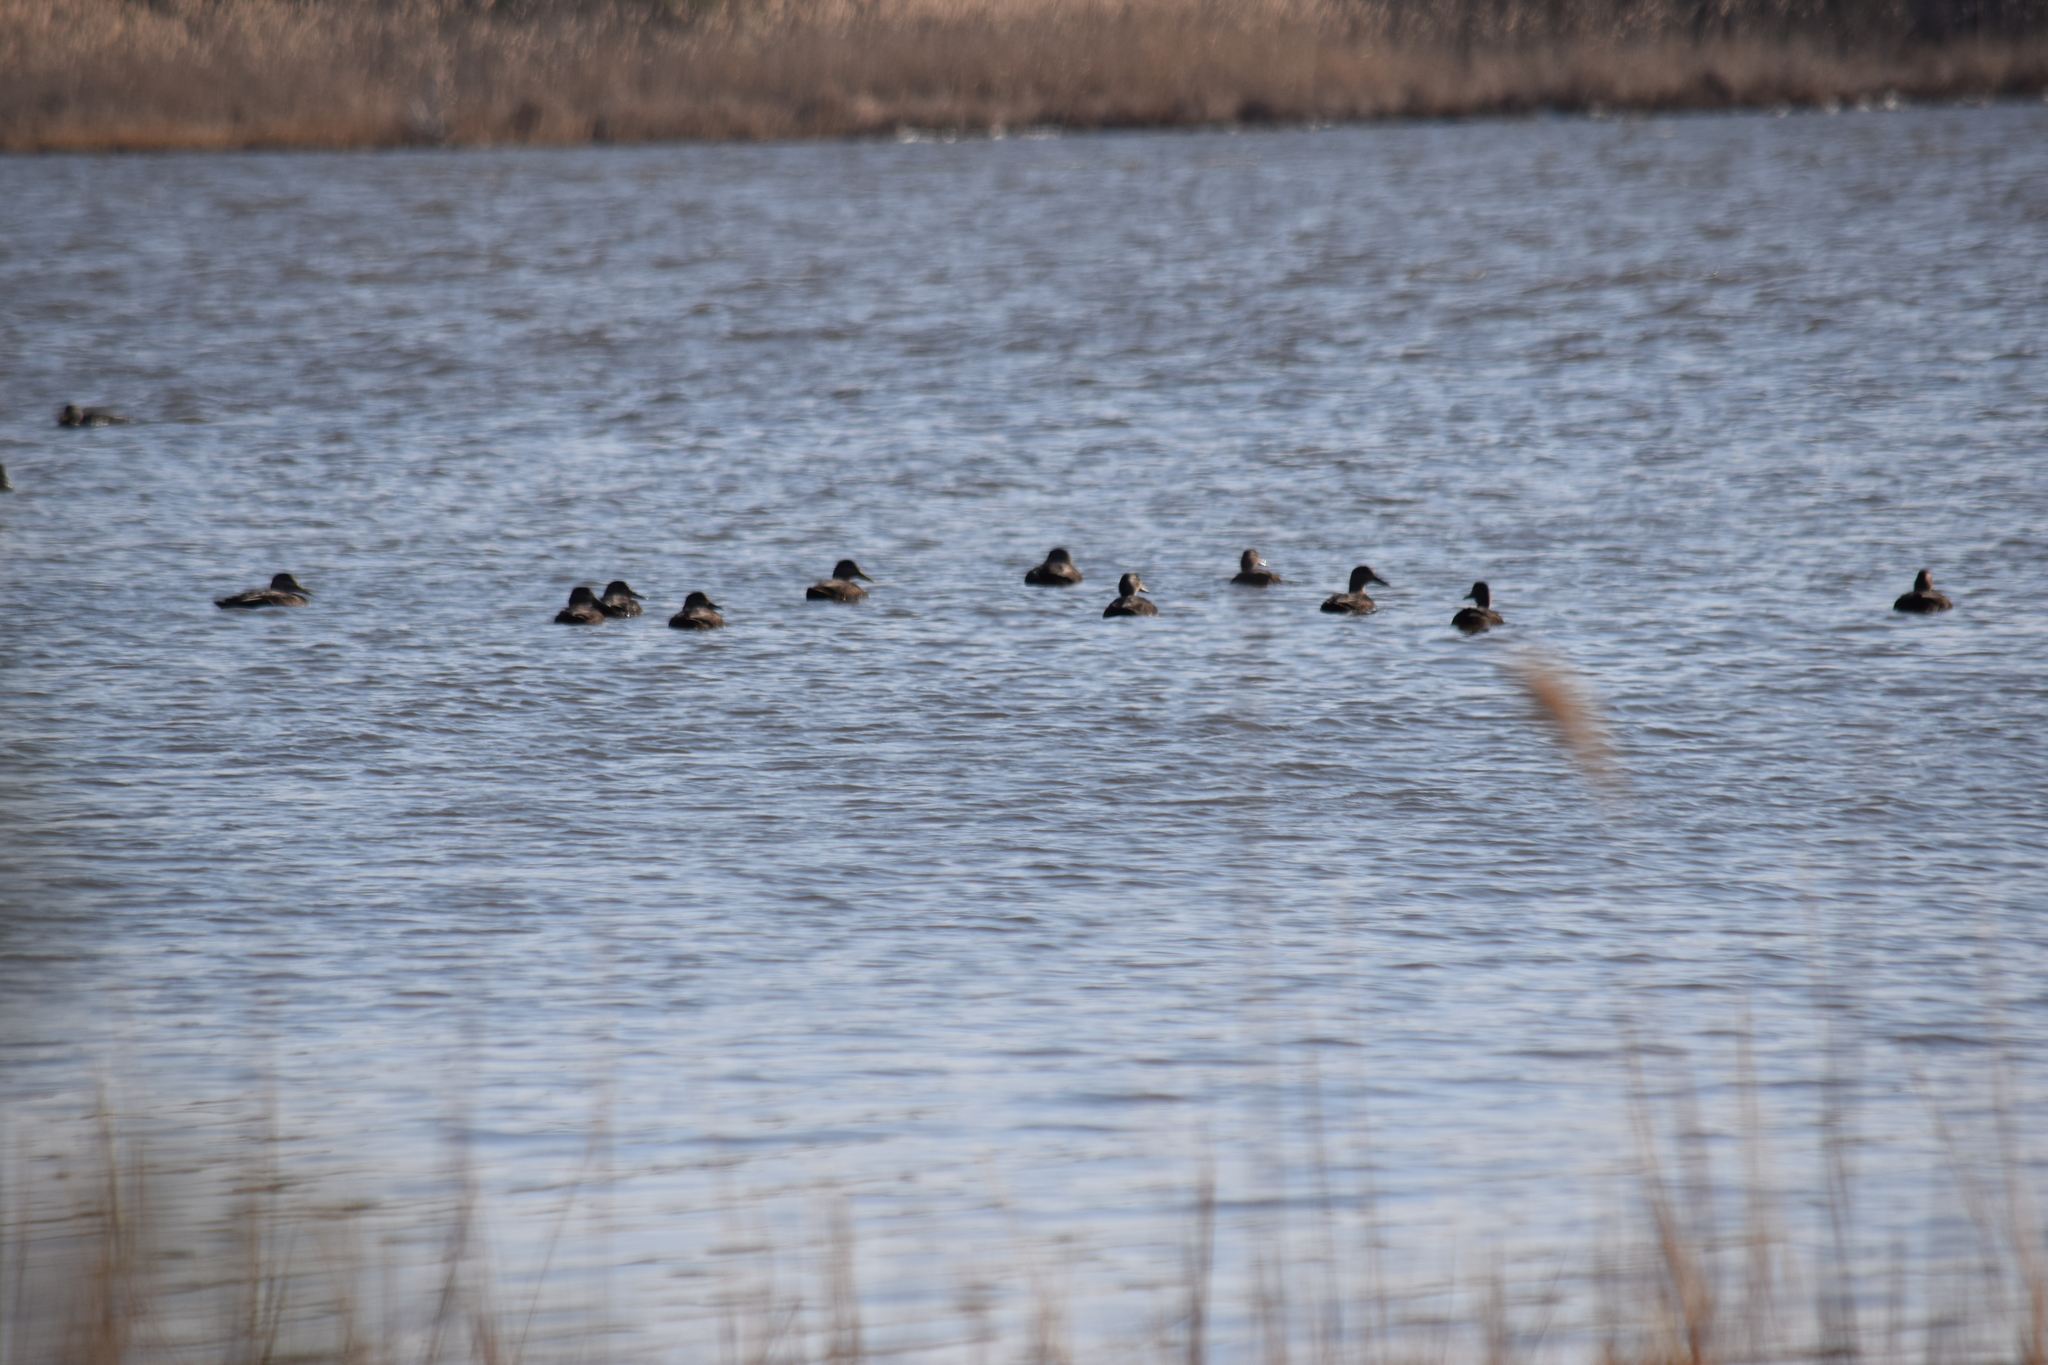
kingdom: Animalia
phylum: Chordata
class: Aves
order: Anseriformes
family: Anatidae
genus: Anas
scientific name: Anas rubripes
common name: American black duck
